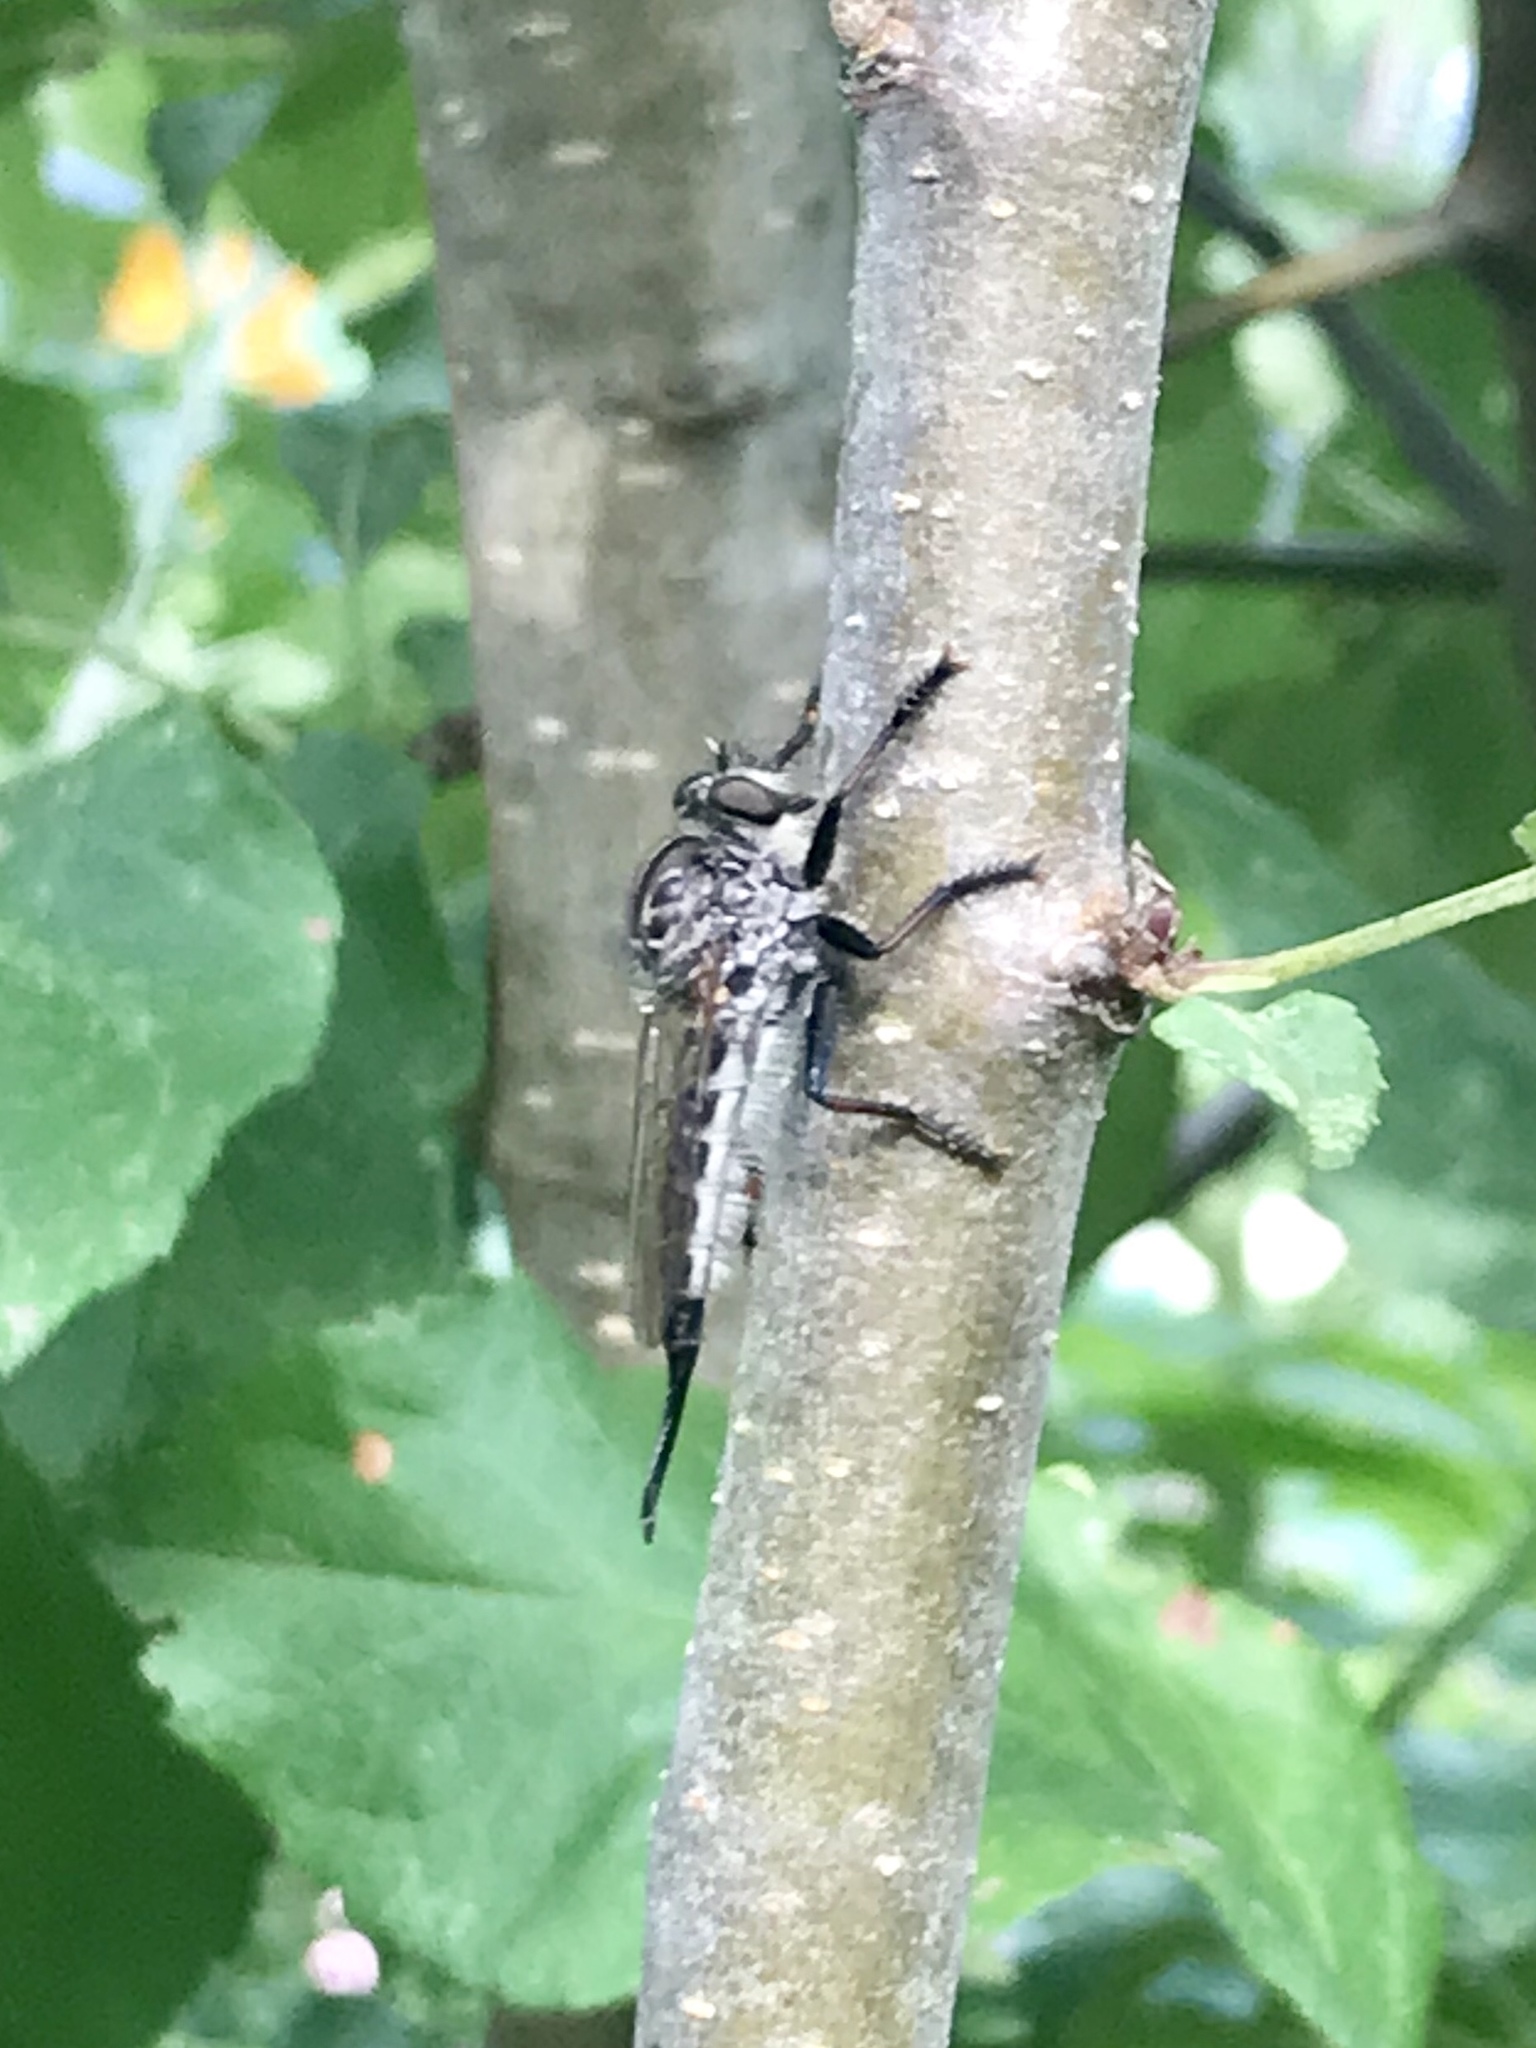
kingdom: Animalia
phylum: Arthropoda
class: Insecta
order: Diptera
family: Asilidae
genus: Efferia
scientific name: Efferia aestuans
